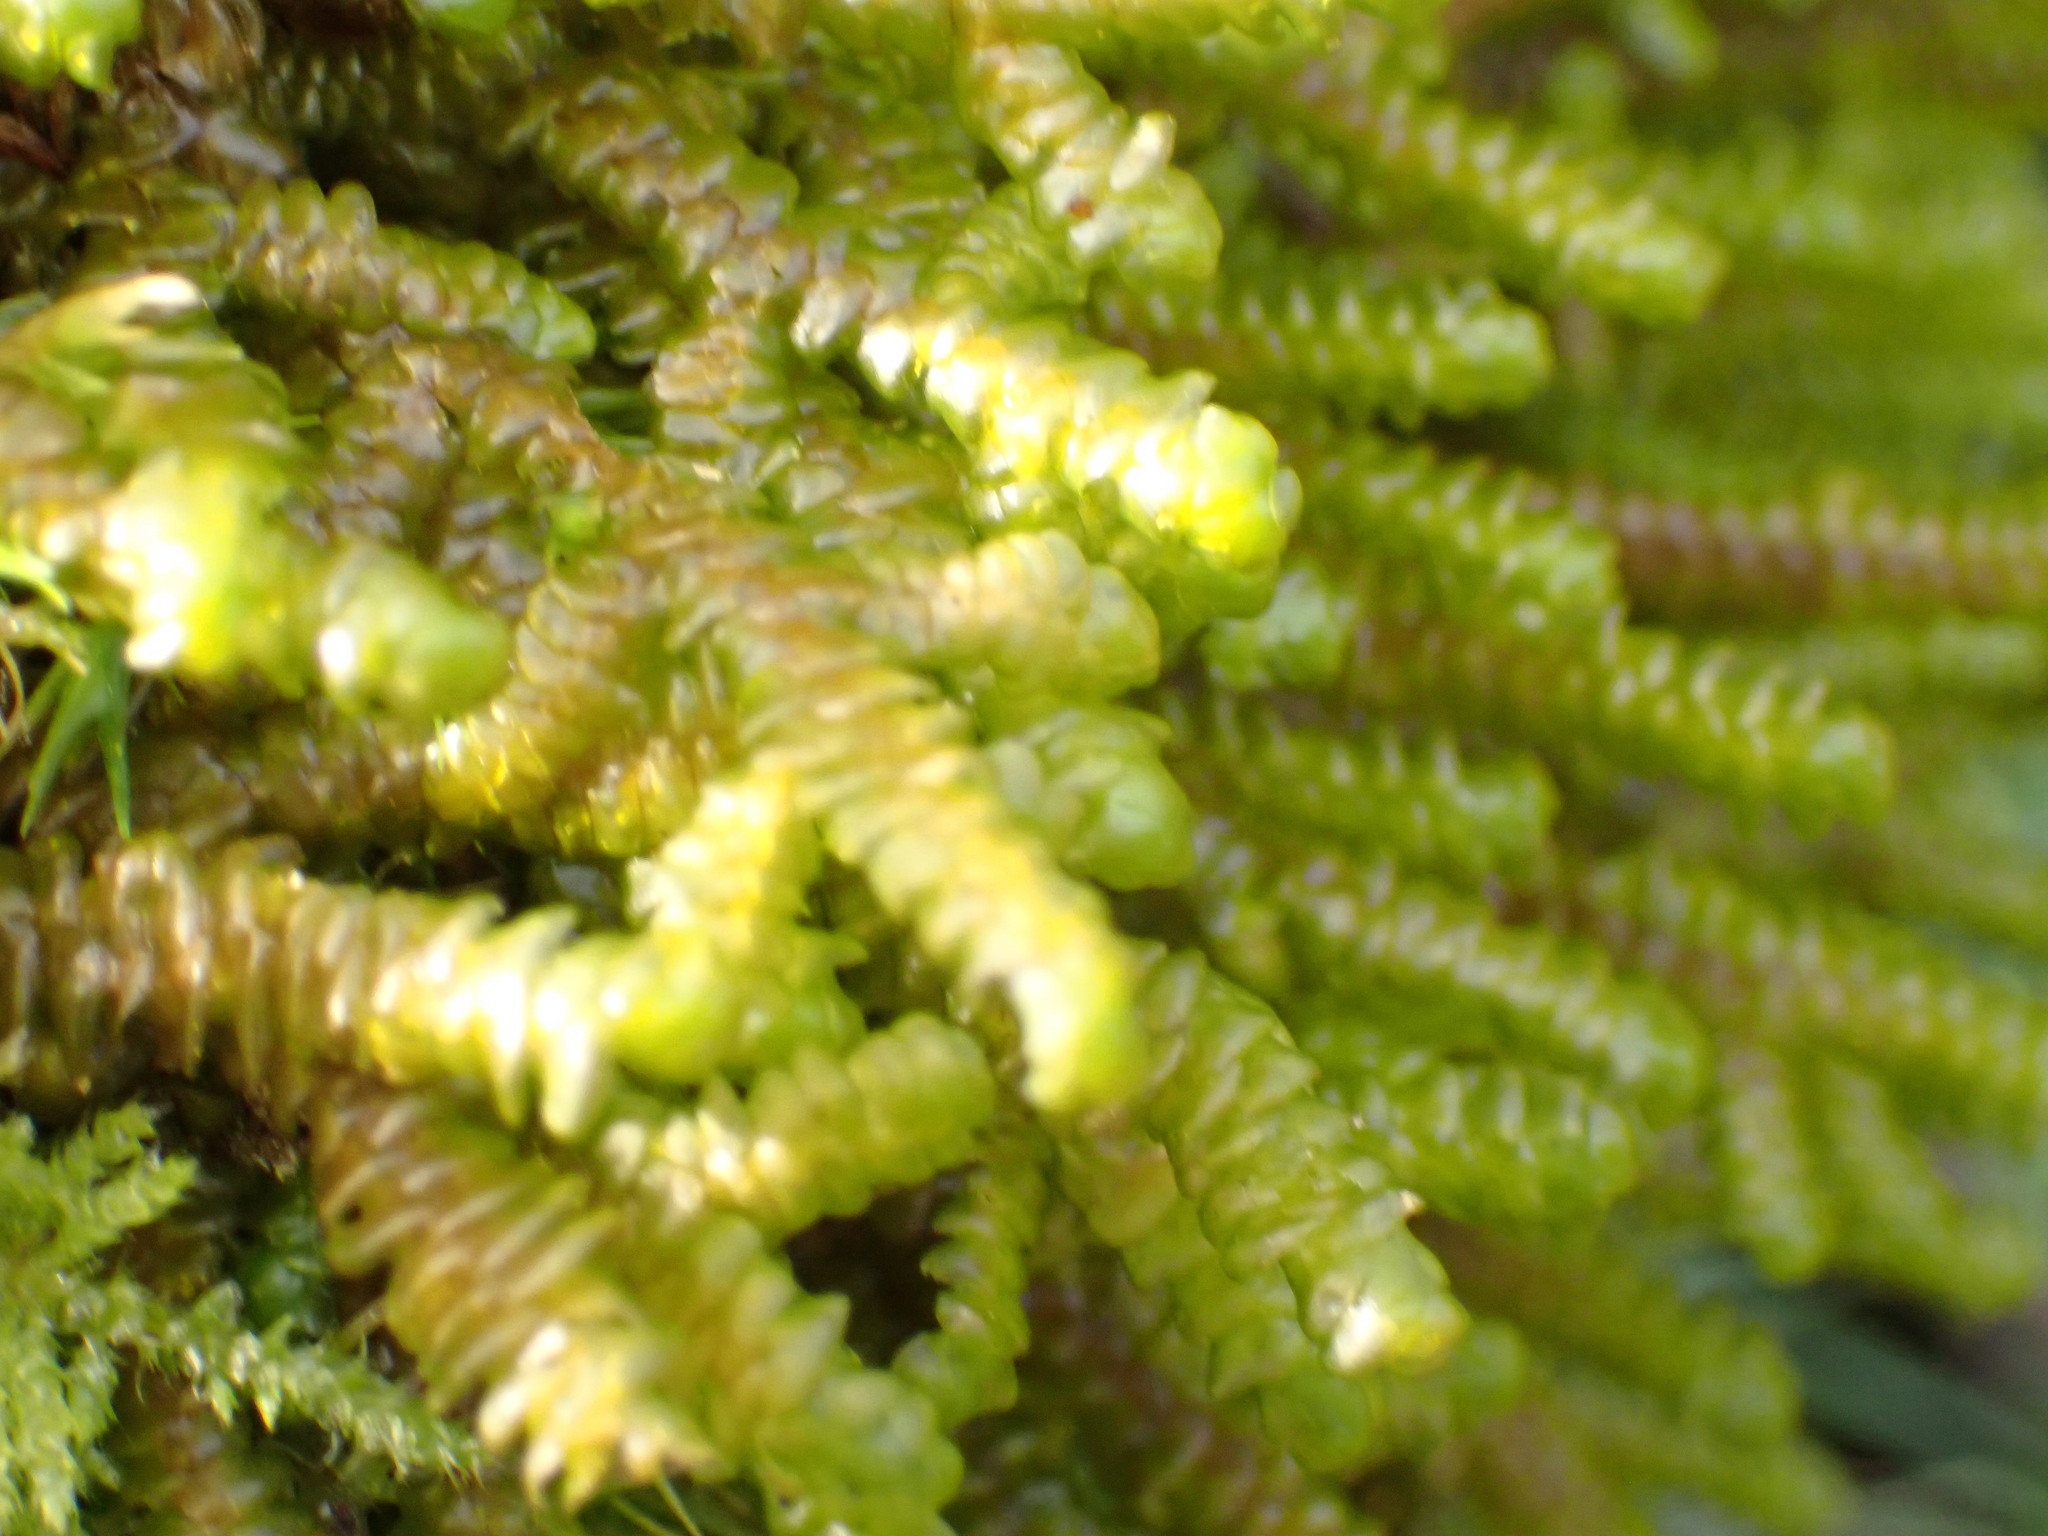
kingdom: Plantae
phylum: Marchantiophyta
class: Jungermanniopsida
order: Porellales
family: Porellaceae
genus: Porella
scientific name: Porella navicularis
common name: Tree ruffle liverwort
